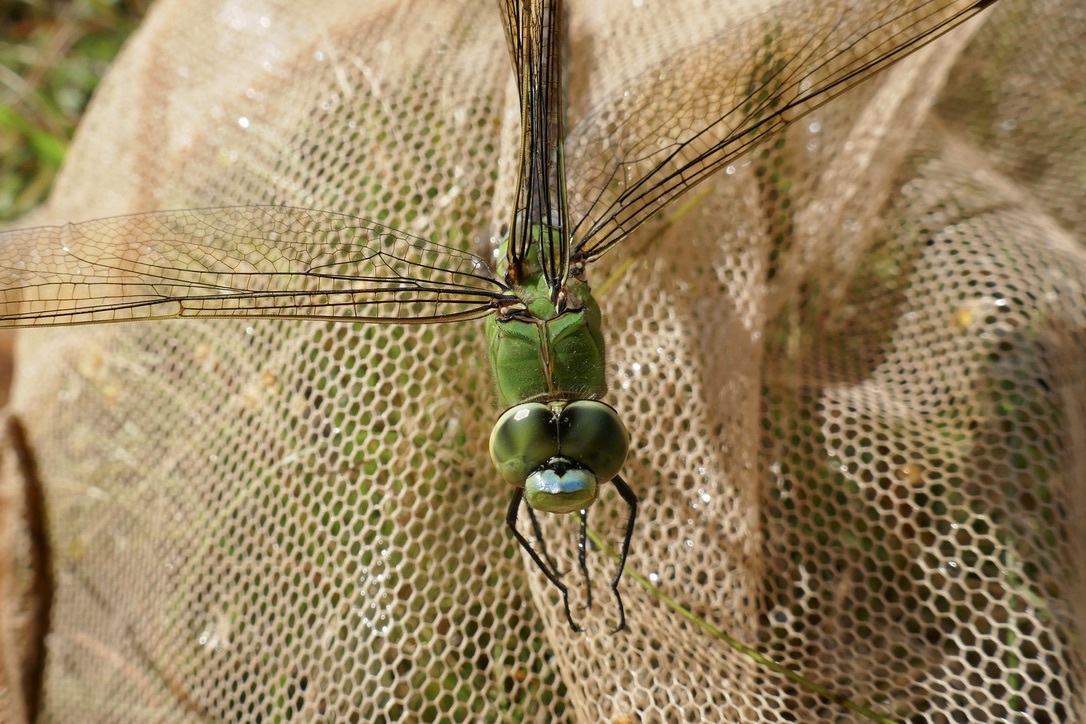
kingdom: Animalia
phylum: Arthropoda
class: Insecta
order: Odonata
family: Aeshnidae
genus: Anax
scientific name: Anax imperator
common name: Emperor dragonfly
